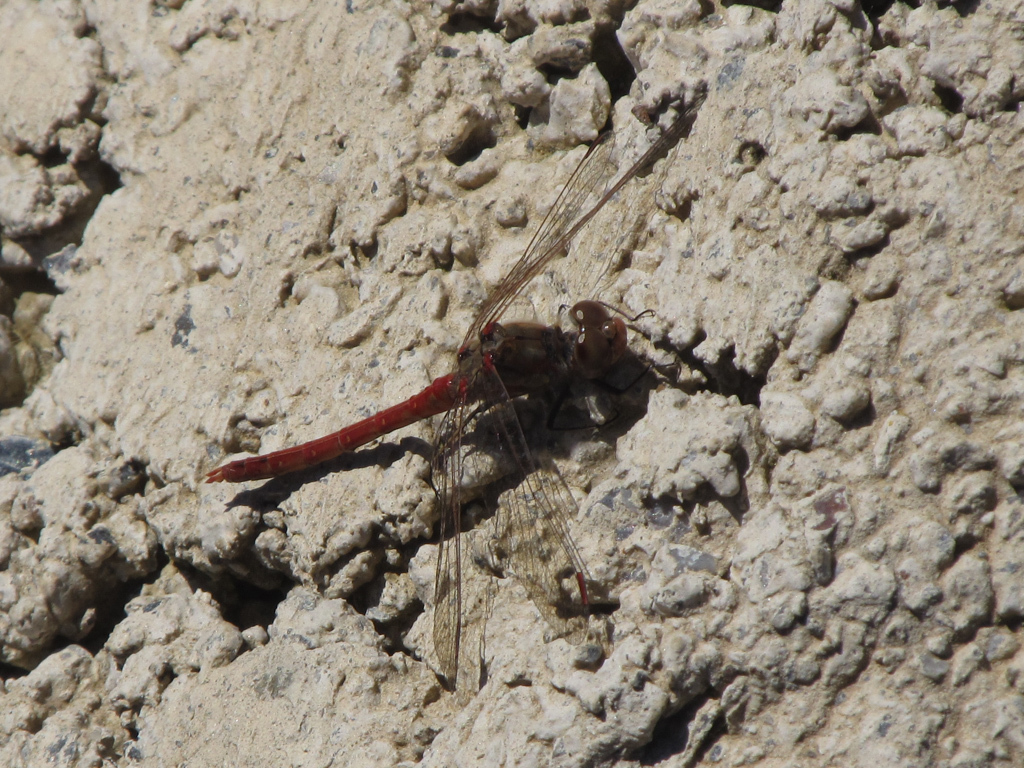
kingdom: Animalia
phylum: Arthropoda
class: Insecta
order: Odonata
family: Libellulidae
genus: Sympetrum
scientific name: Sympetrum striolatum
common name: Common darter
